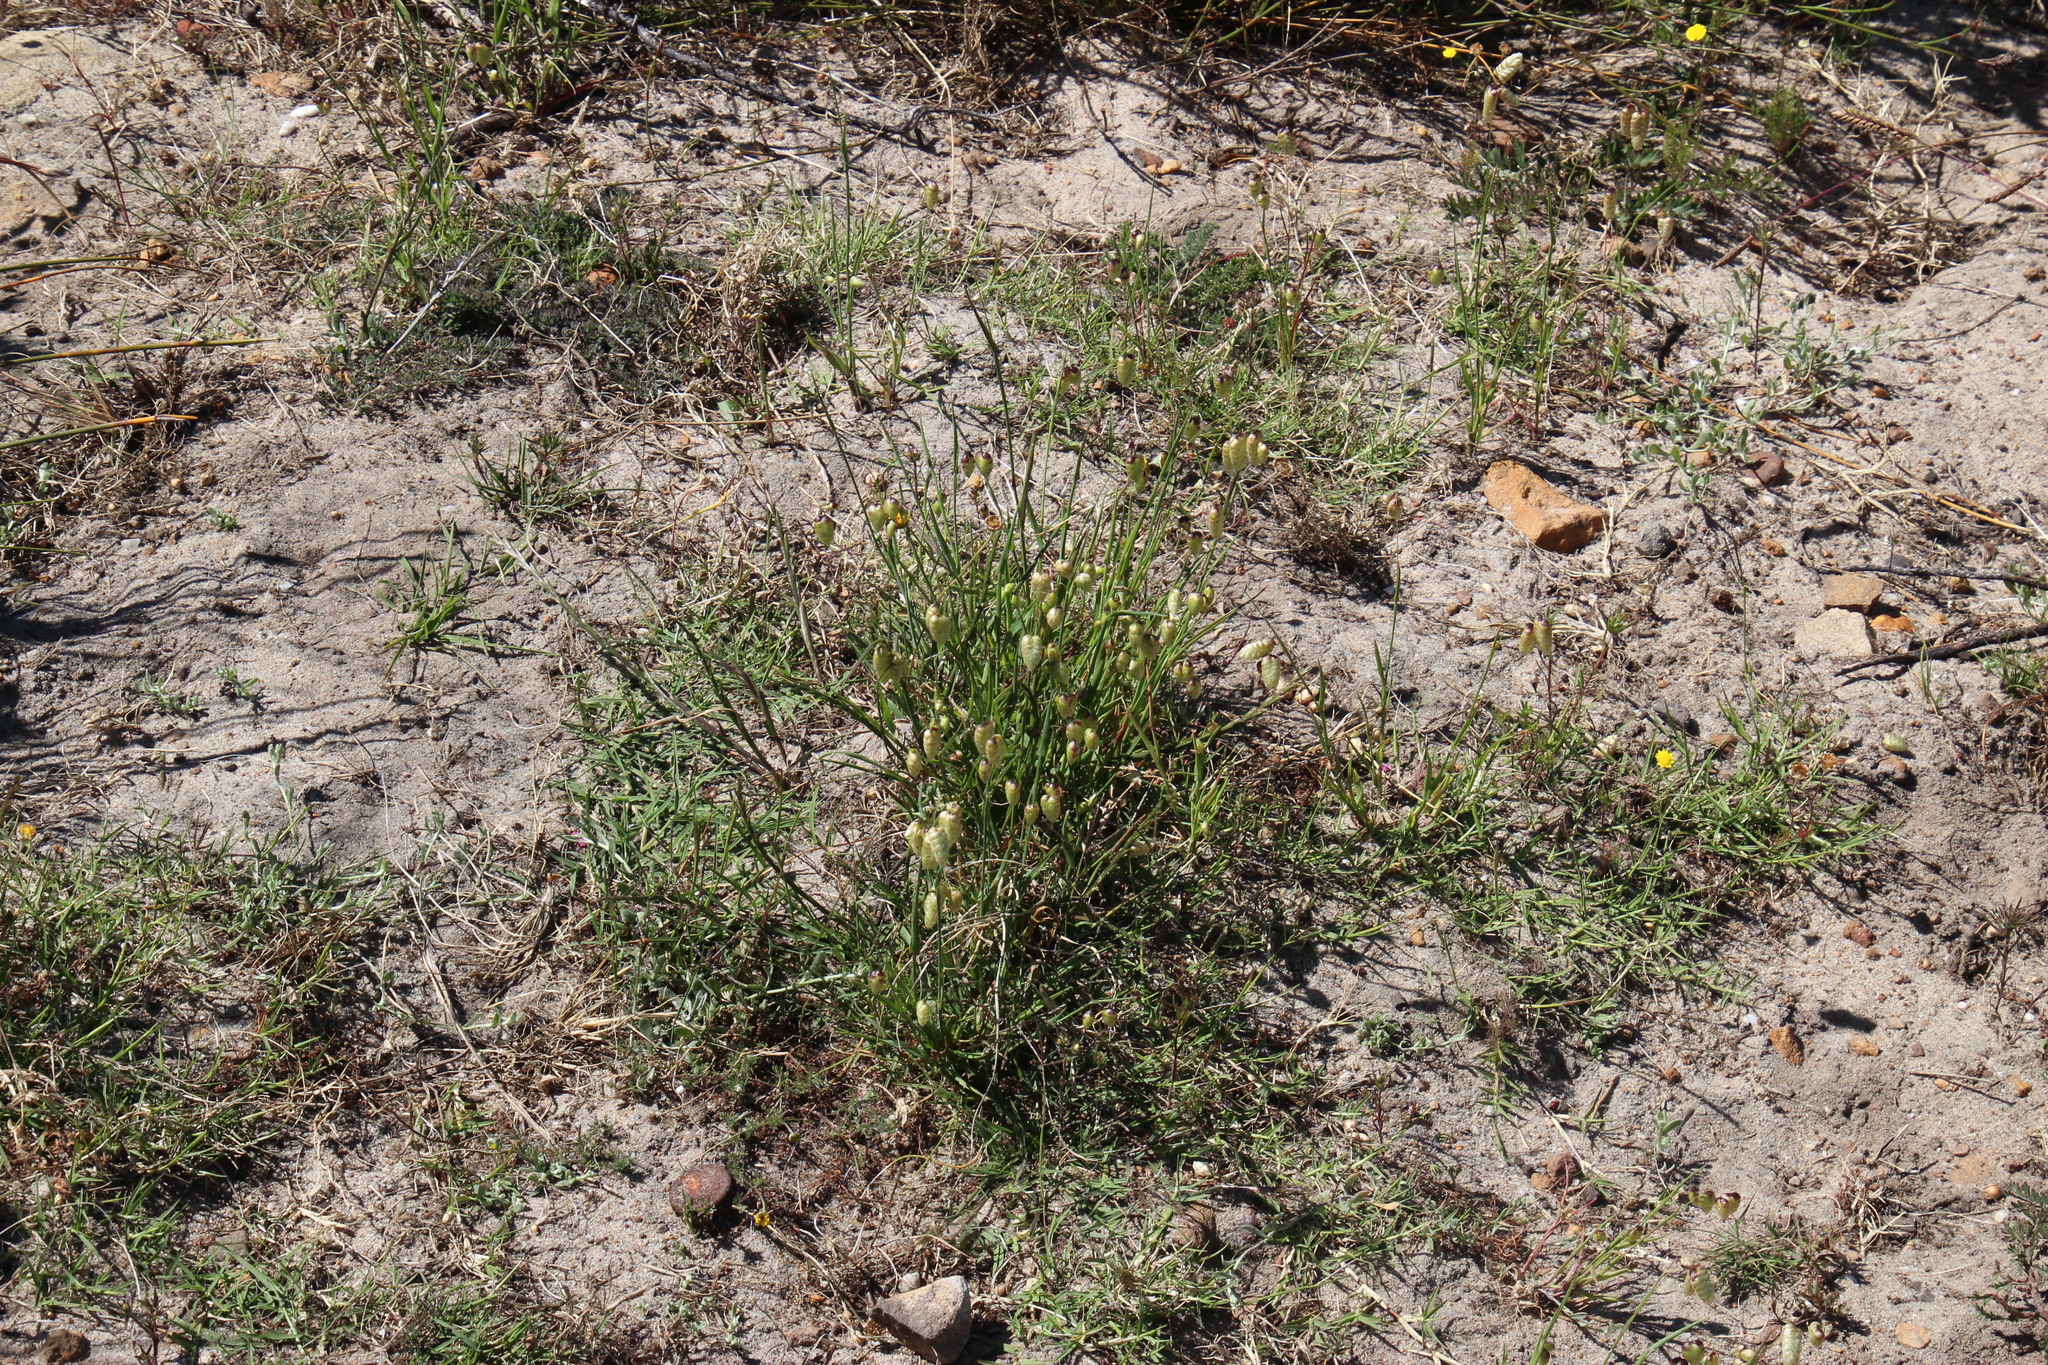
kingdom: Plantae
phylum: Tracheophyta
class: Liliopsida
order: Poales
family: Poaceae
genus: Briza
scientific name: Briza maxima
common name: Big quakinggrass
